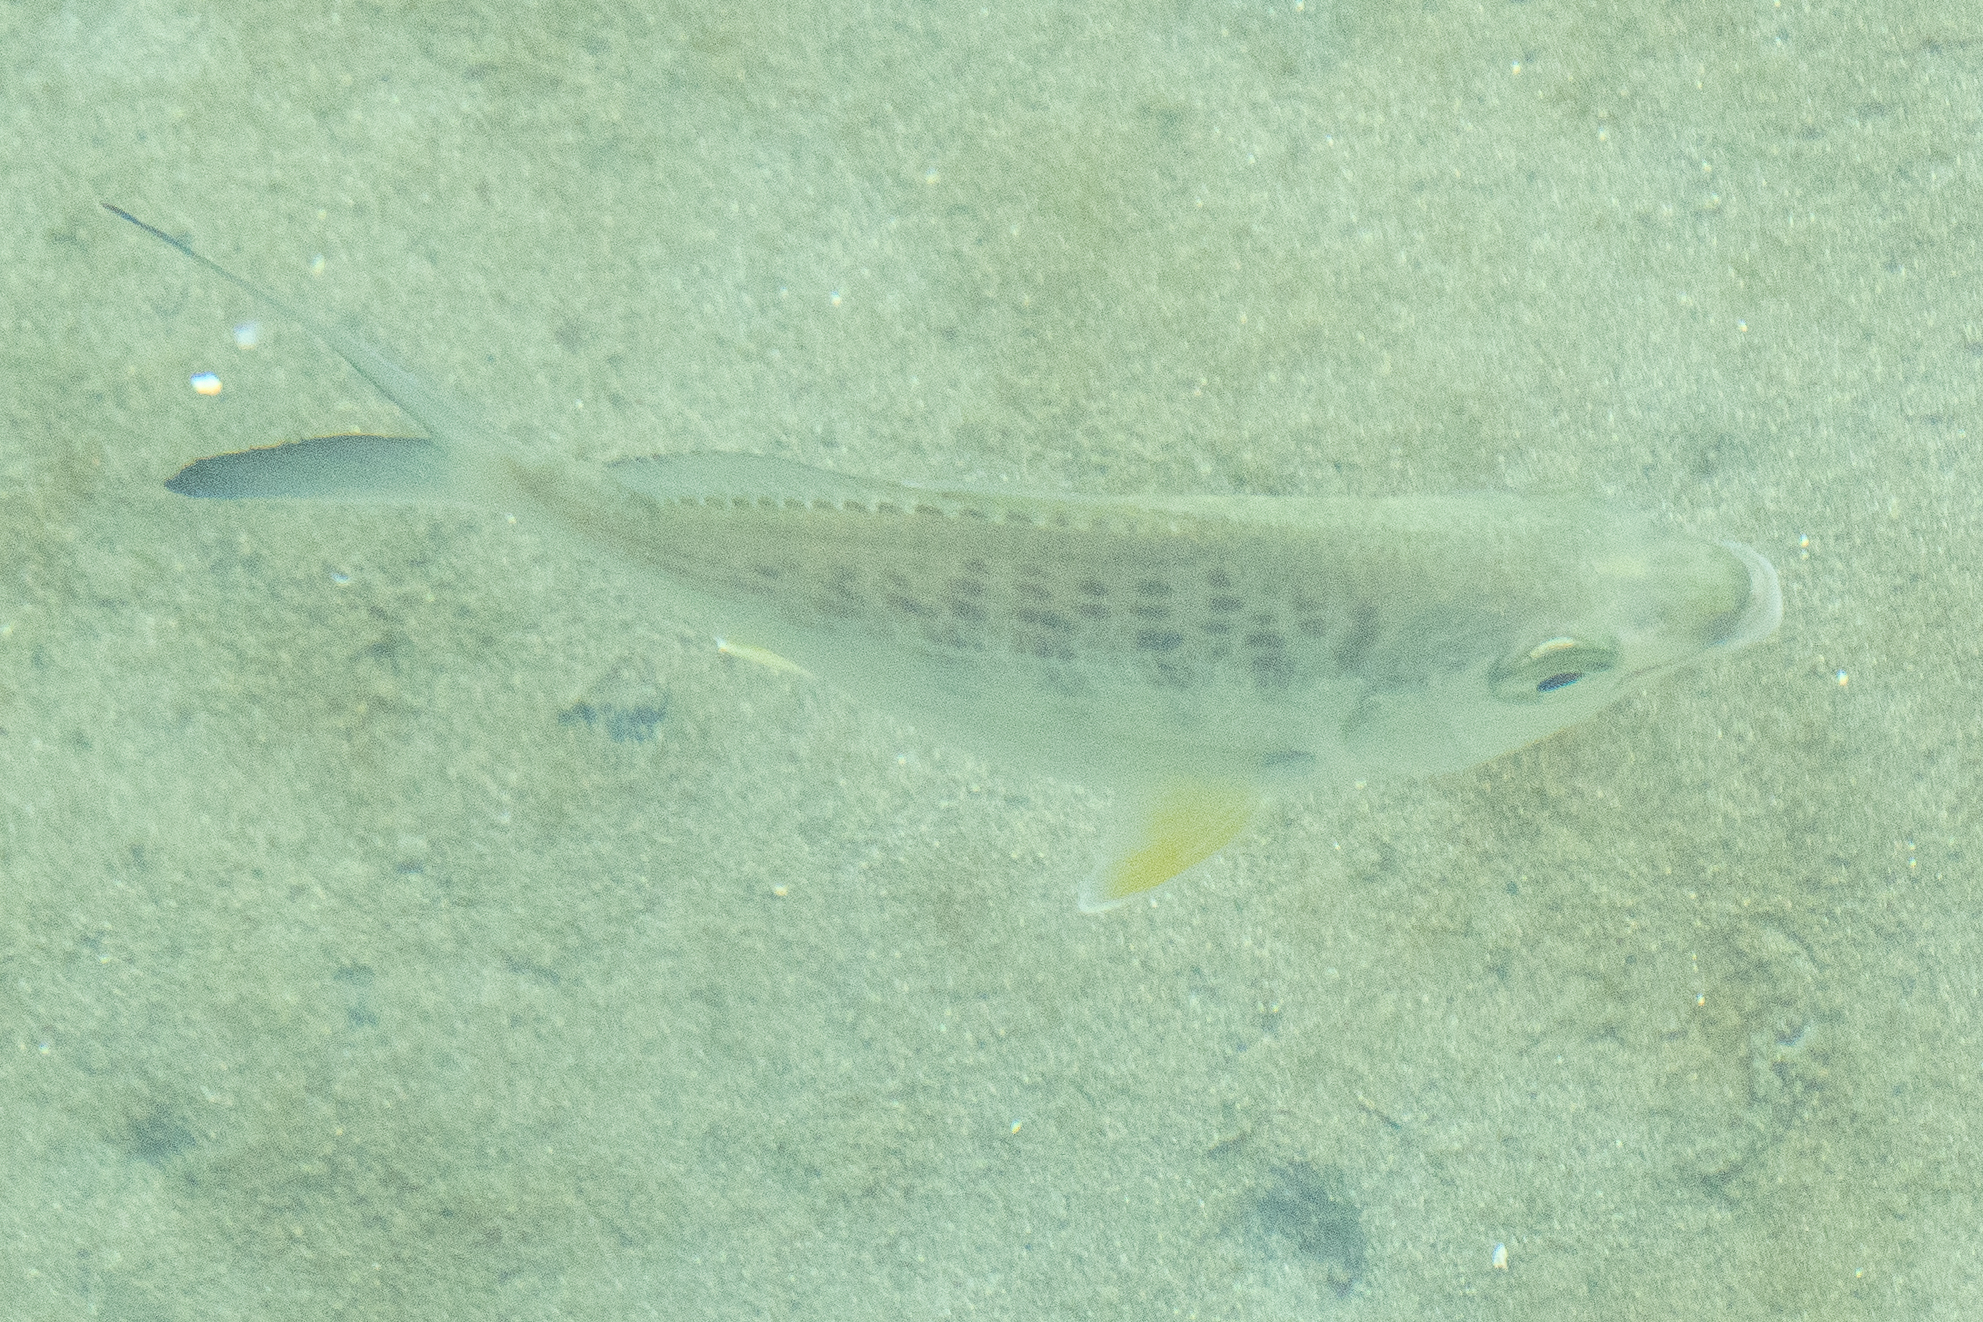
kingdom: Animalia
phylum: Chordata
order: Perciformes
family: Gerreidae
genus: Gerres
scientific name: Gerres cinereus
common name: Hedow
